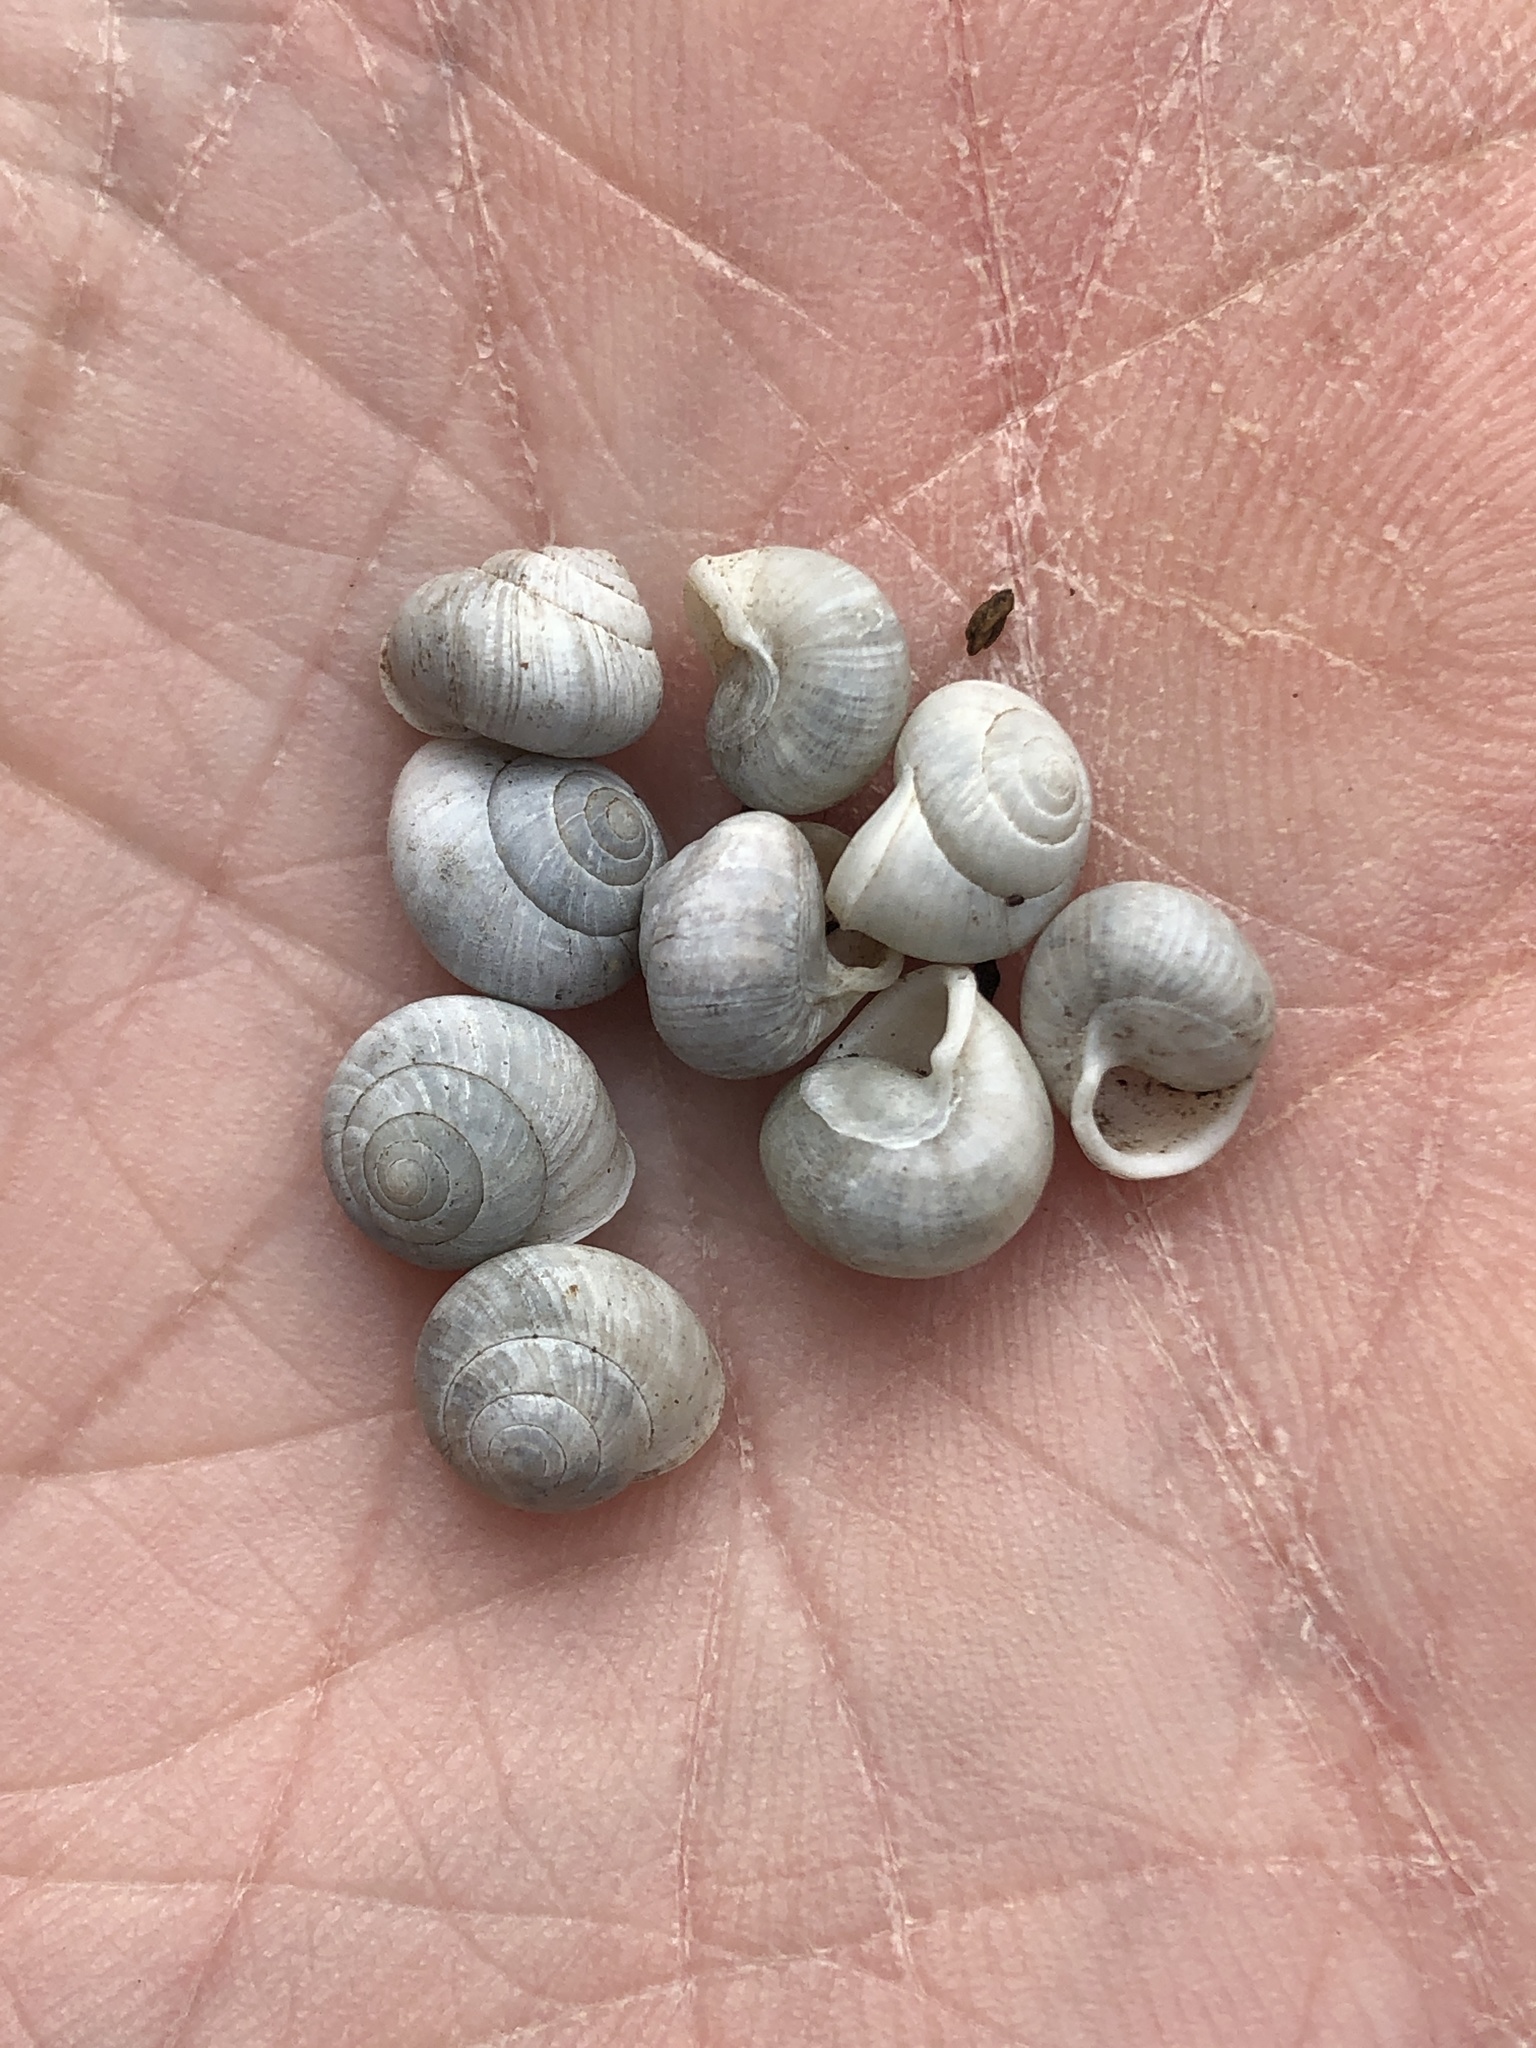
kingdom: Animalia
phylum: Mollusca
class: Gastropoda
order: Cycloneritida
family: Helicinidae
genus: Helicina
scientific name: Helicina orbiculata
